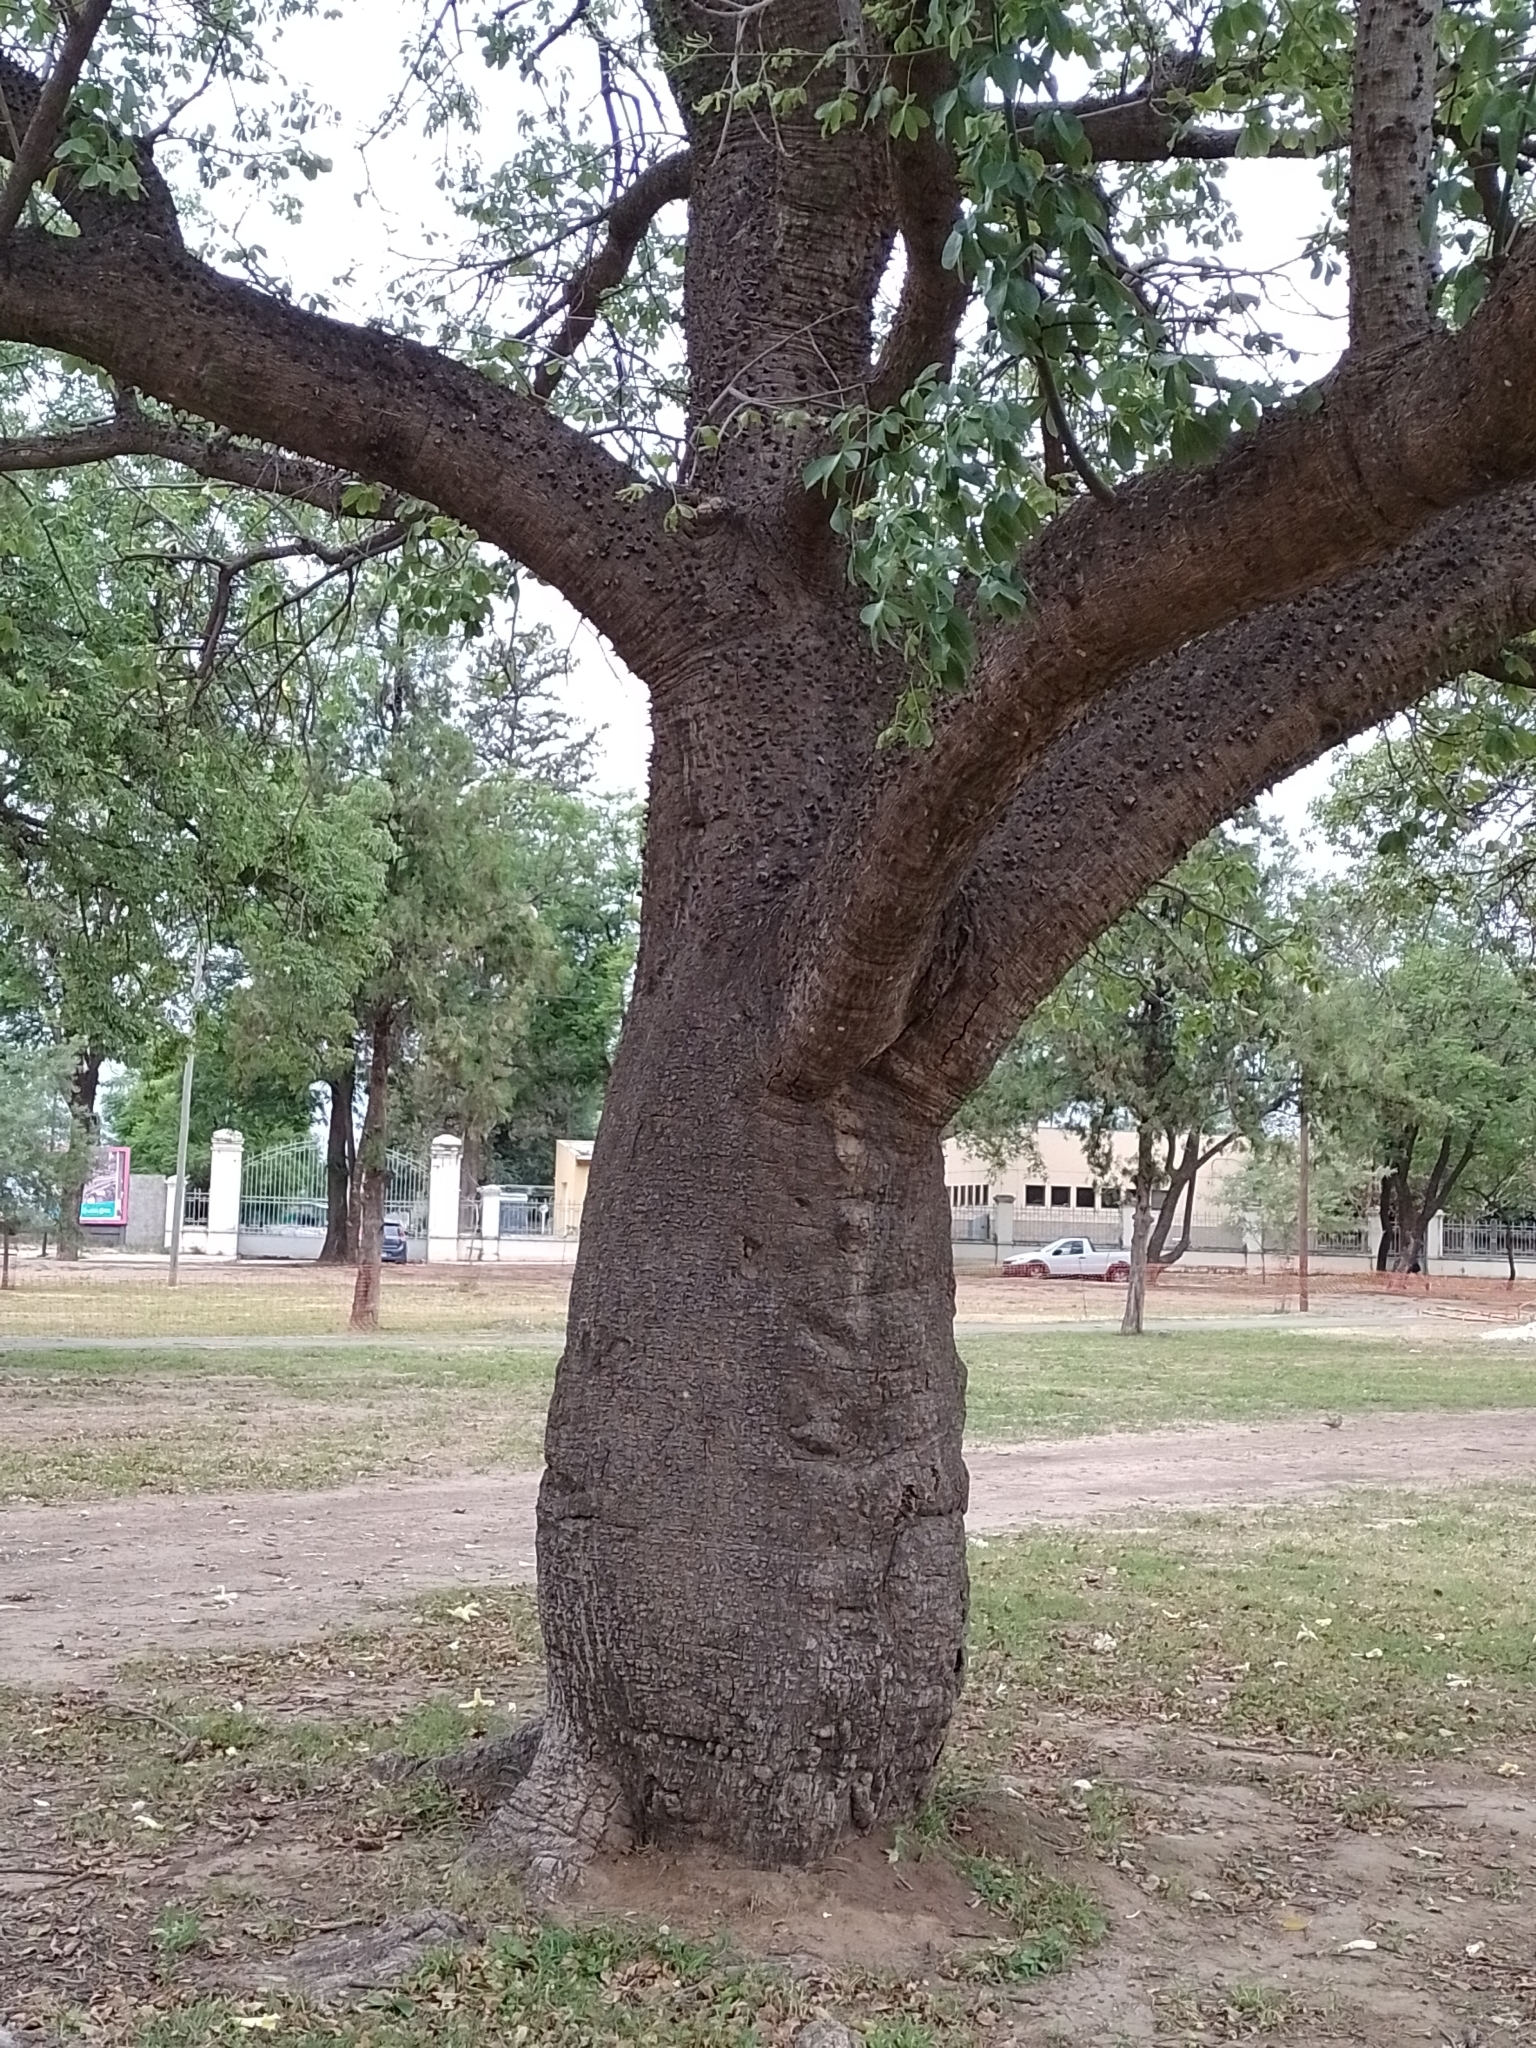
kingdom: Plantae
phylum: Tracheophyta
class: Magnoliopsida
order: Malvales
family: Malvaceae
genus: Ceiba
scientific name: Ceiba chodatii
